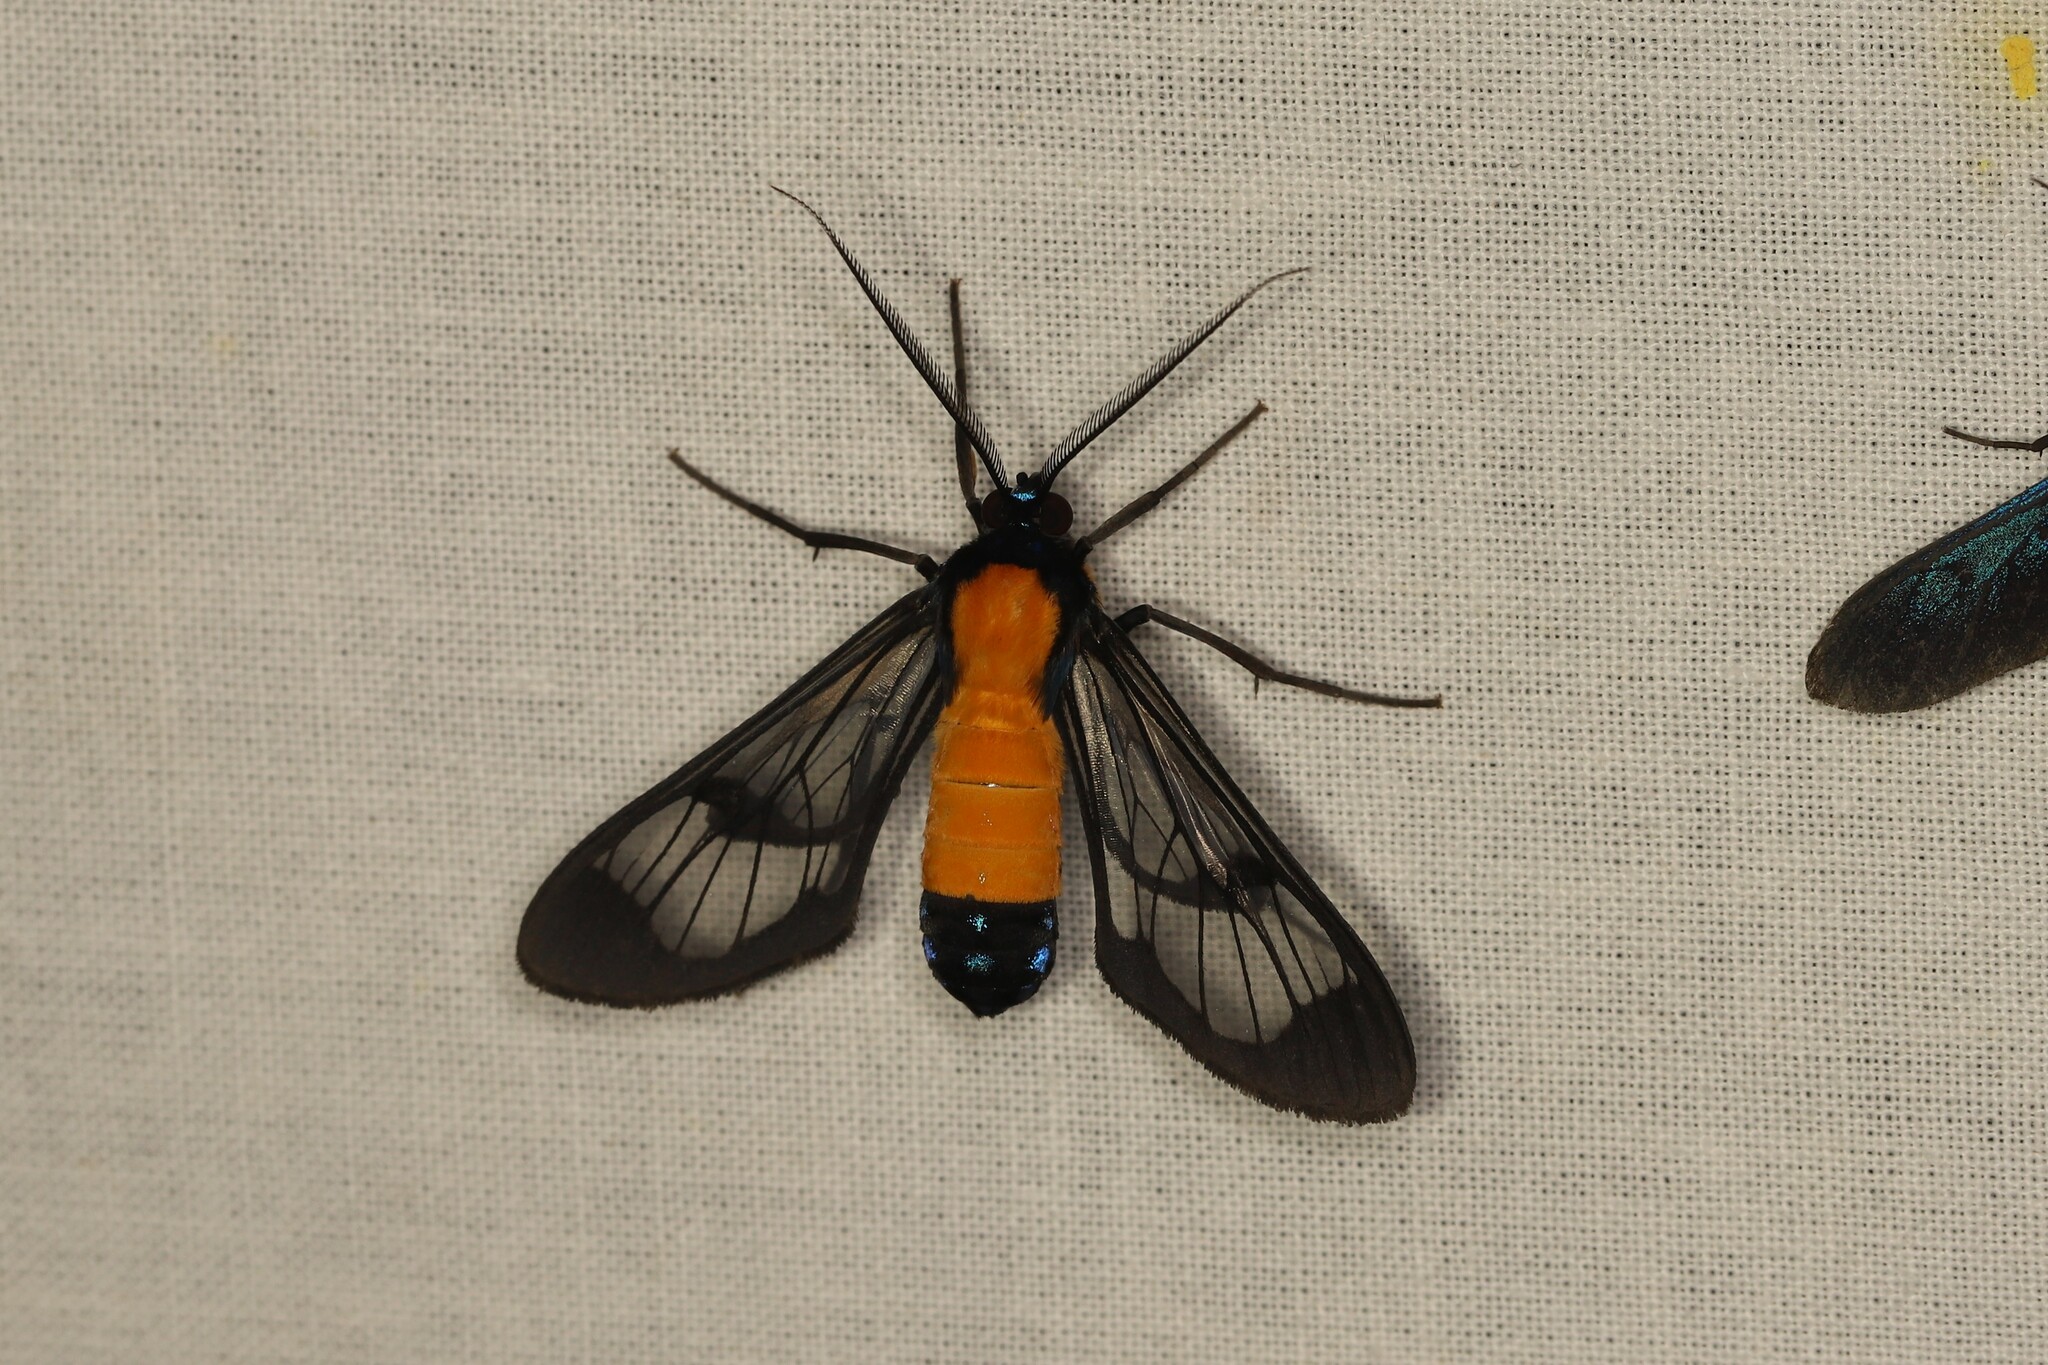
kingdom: Animalia
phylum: Arthropoda
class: Insecta
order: Lepidoptera
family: Erebidae
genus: Cosmosoma
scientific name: Cosmosoma intensa
